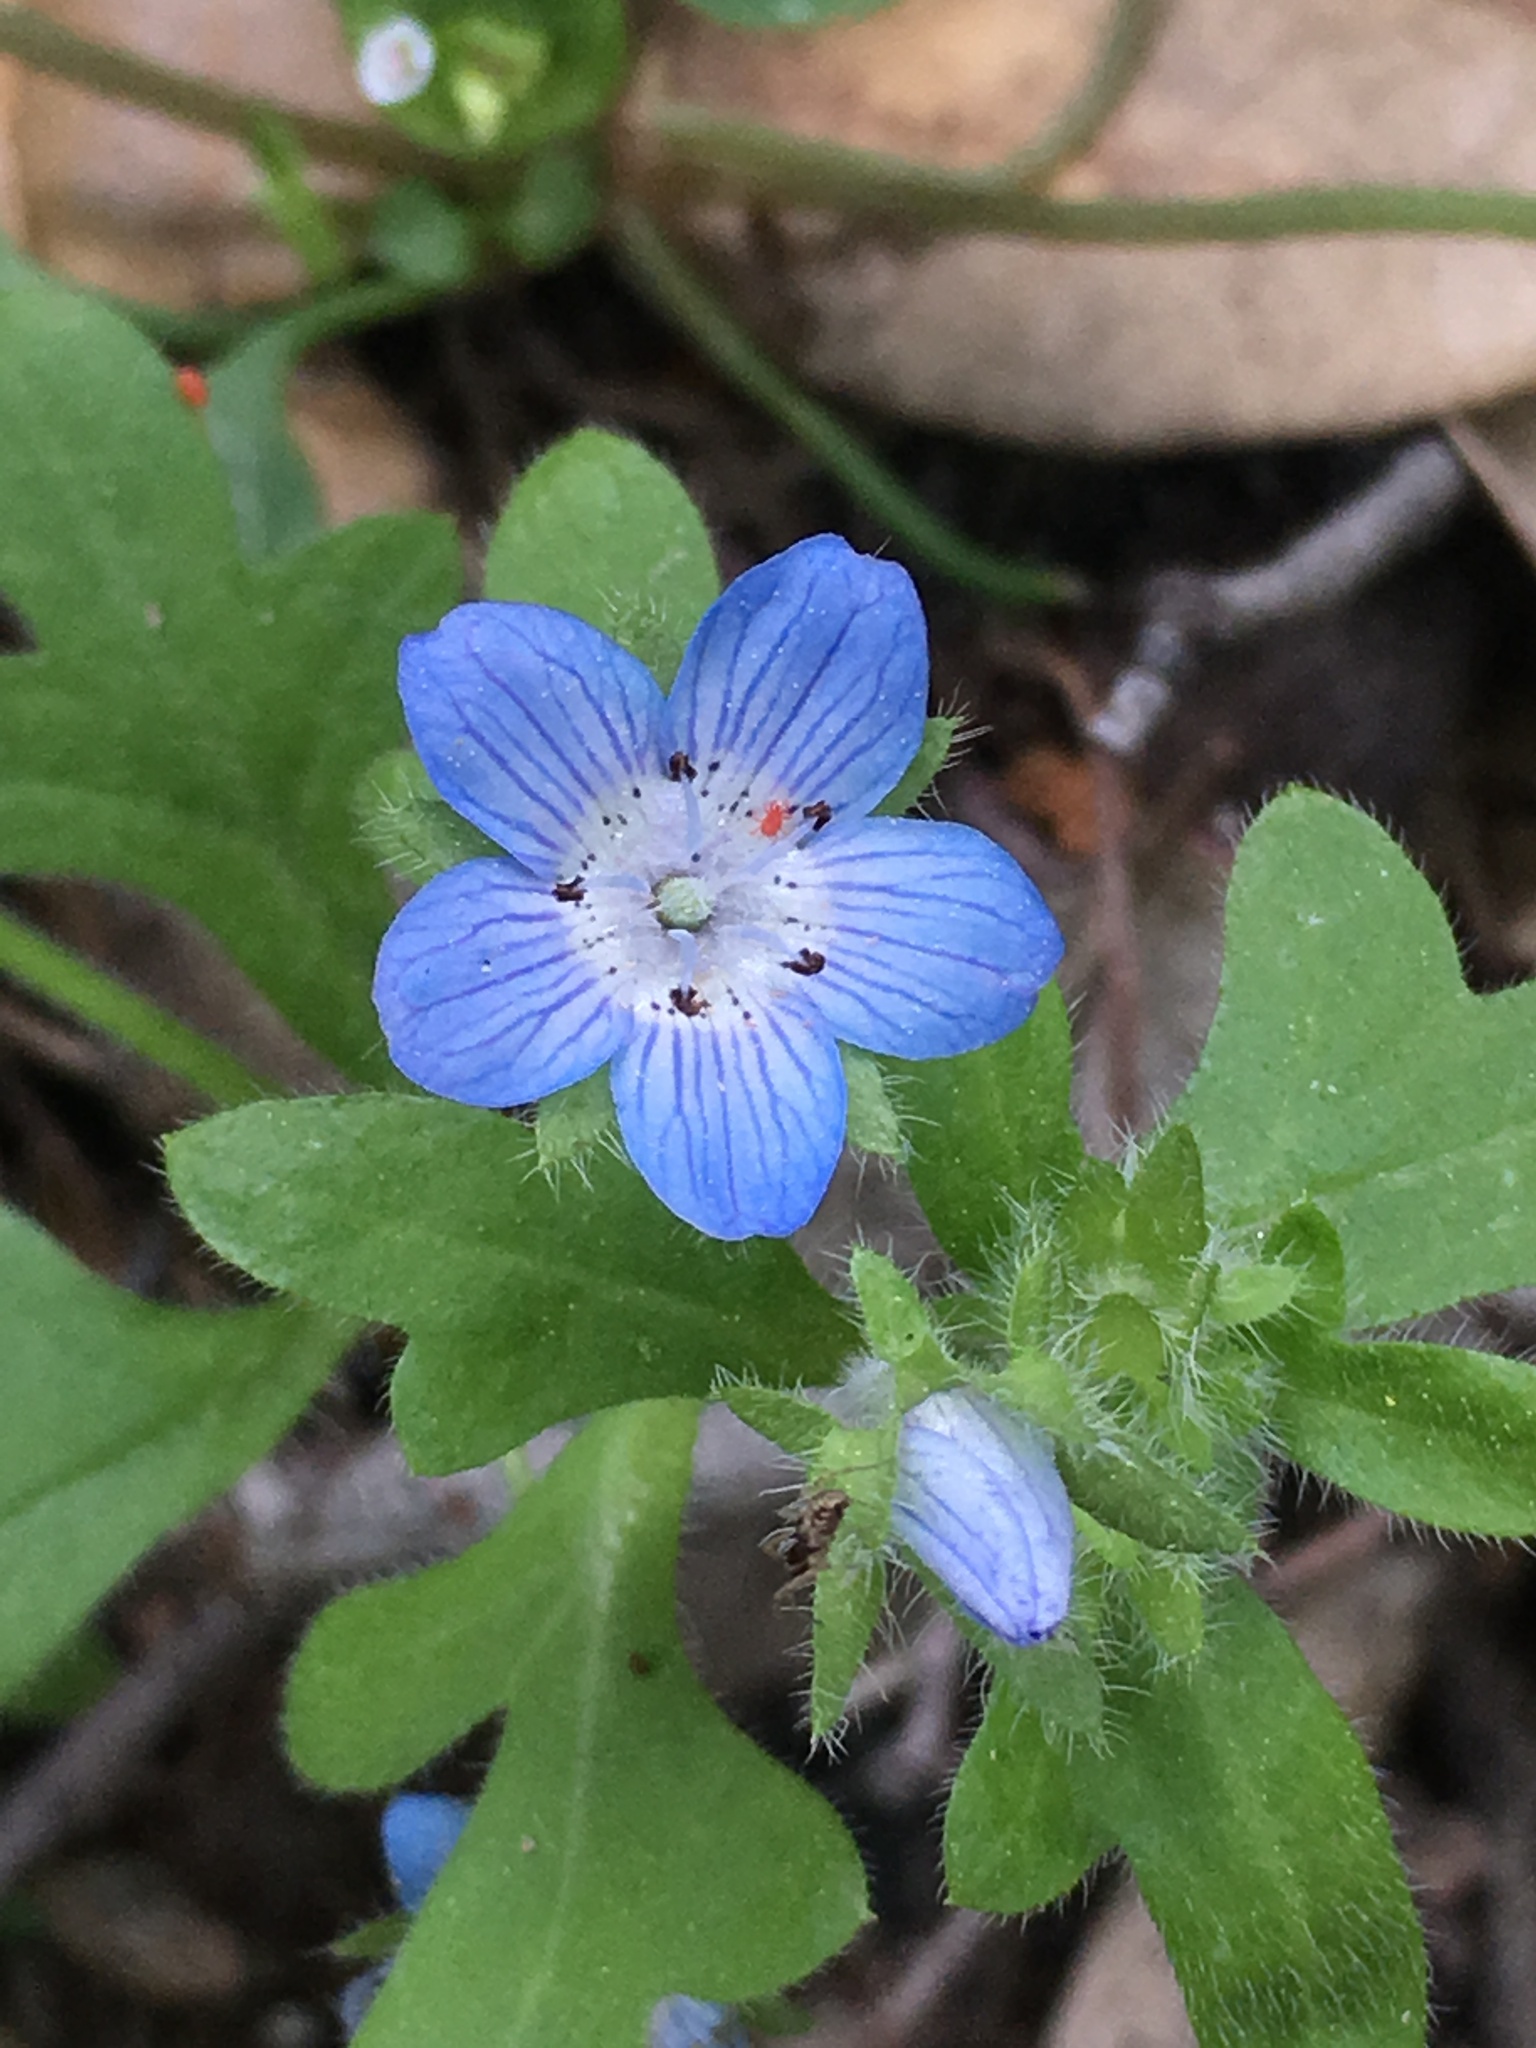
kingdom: Plantae
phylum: Tracheophyta
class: Magnoliopsida
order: Boraginales
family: Hydrophyllaceae
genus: Nemophila
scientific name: Nemophila menziesii
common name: Baby's-blue-eyes
